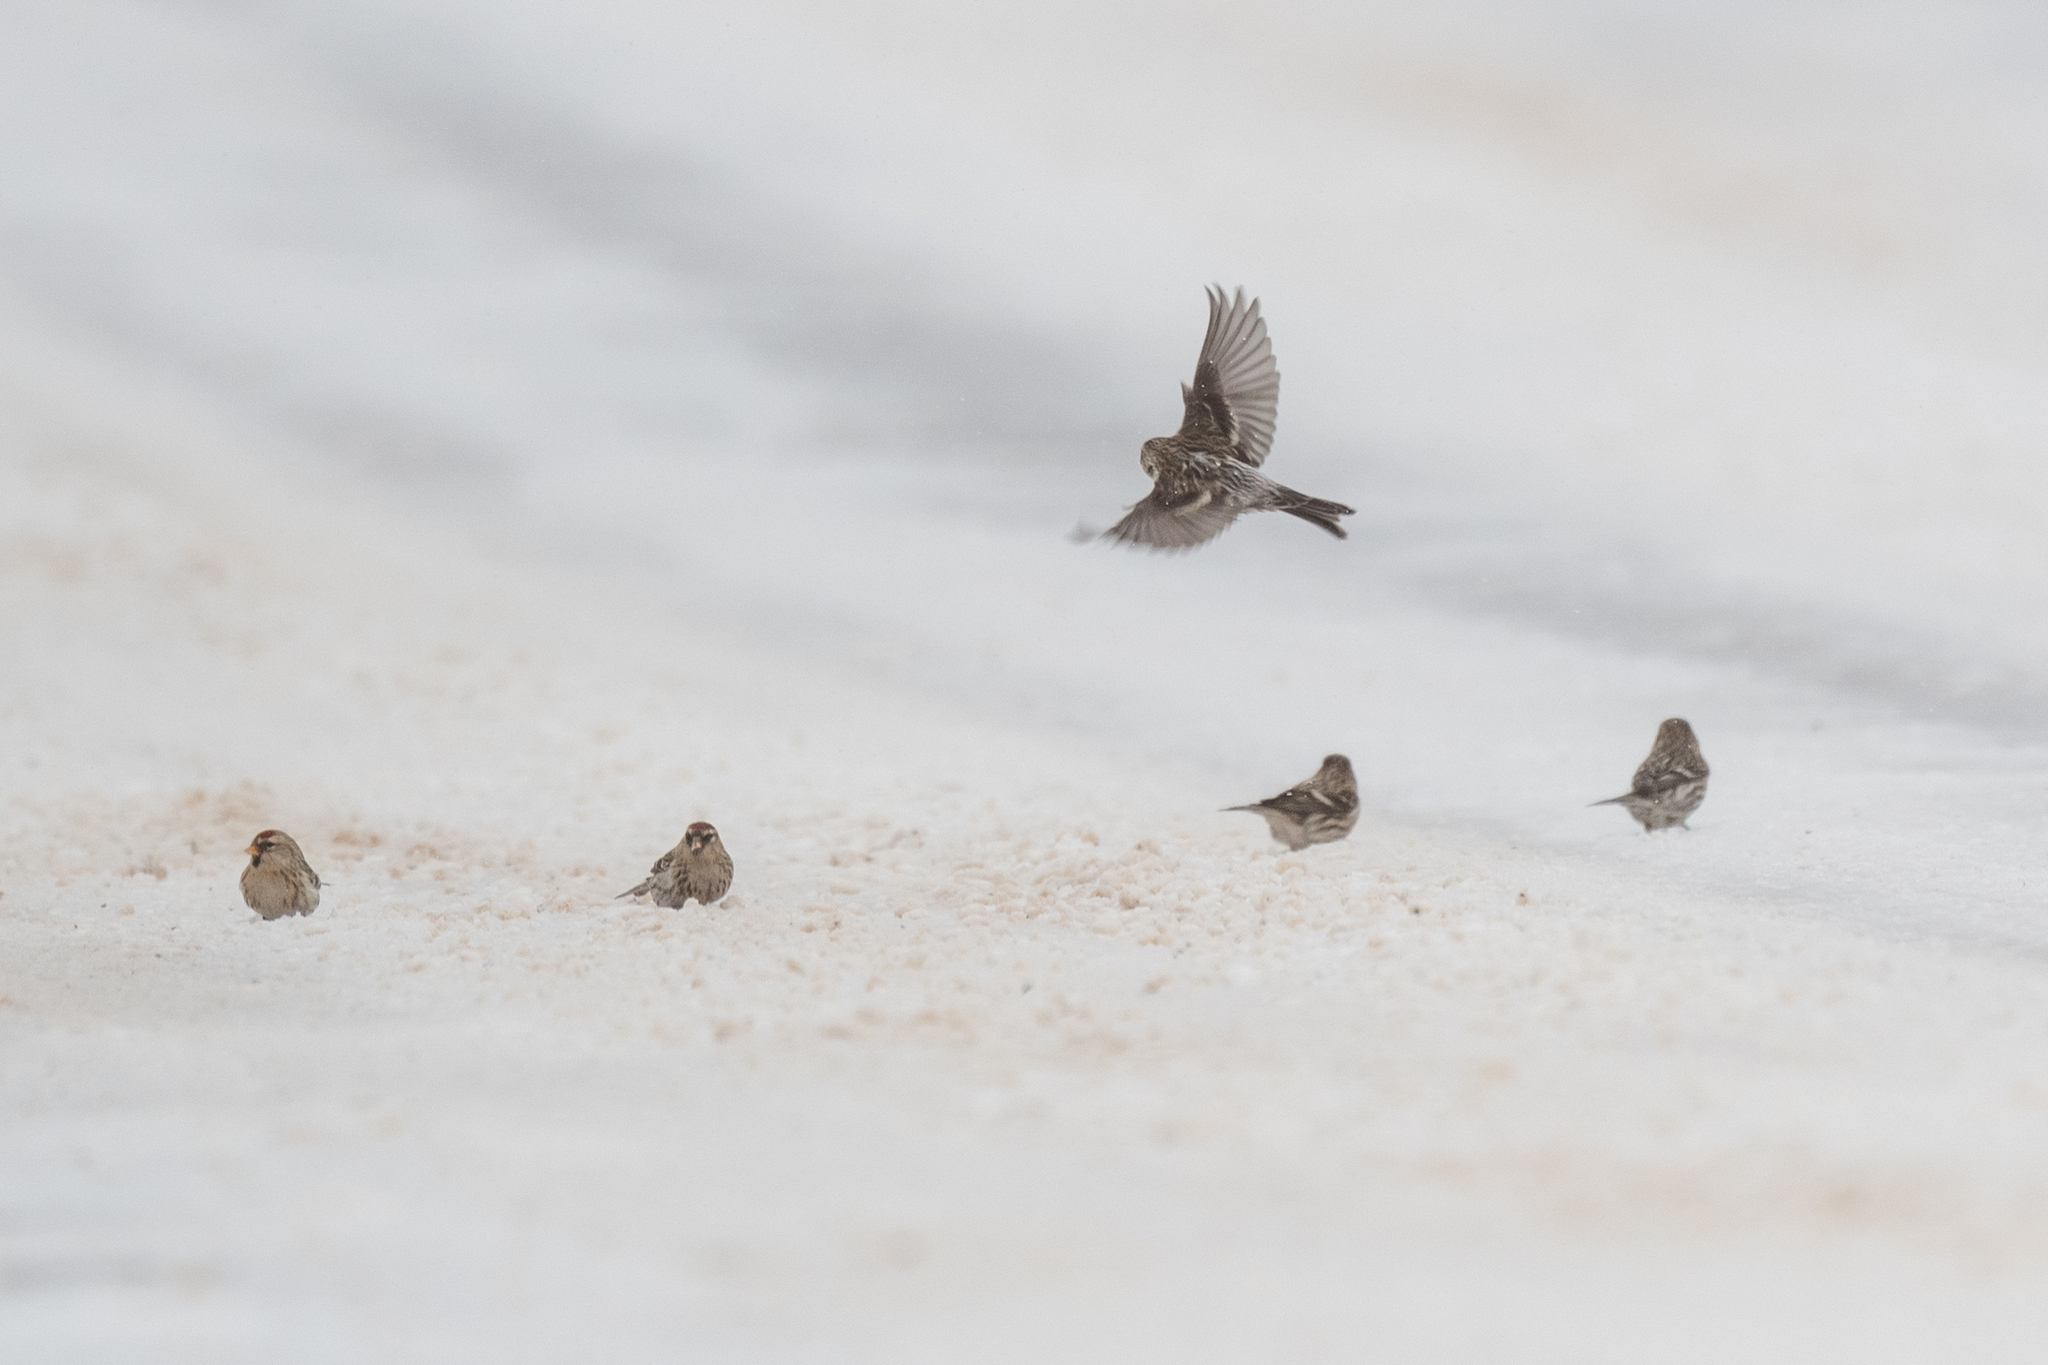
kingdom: Animalia
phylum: Chordata
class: Aves
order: Passeriformes
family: Fringillidae
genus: Acanthis
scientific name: Acanthis flammea
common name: Common redpoll
